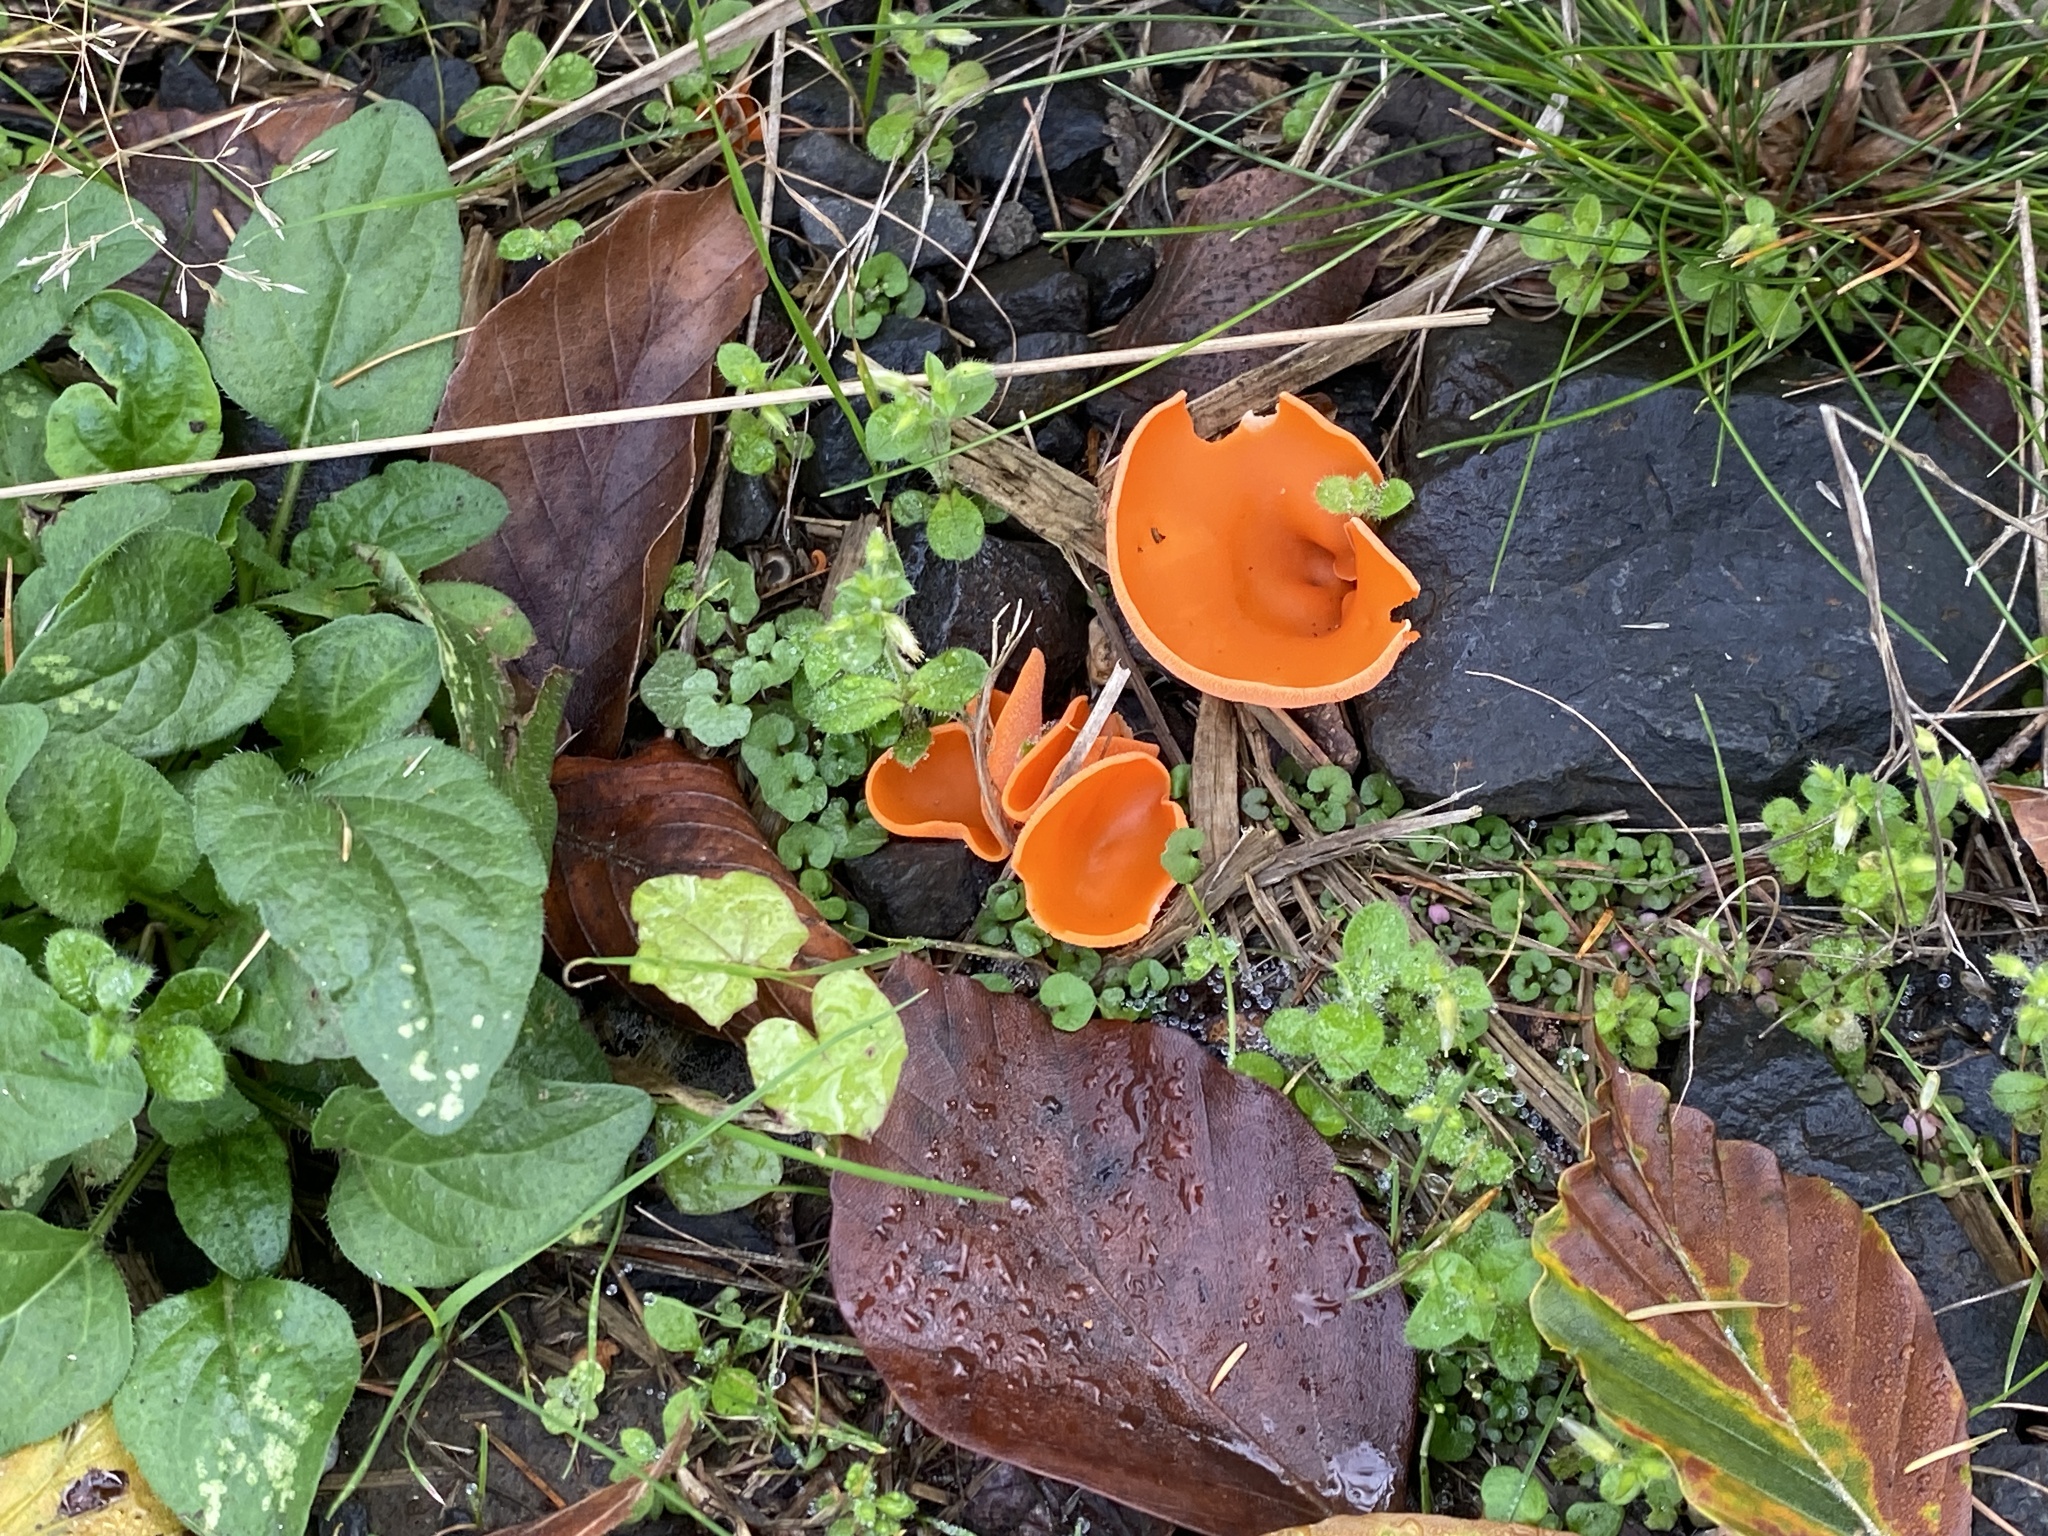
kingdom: Fungi
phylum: Ascomycota
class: Pezizomycetes
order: Pezizales
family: Pyronemataceae
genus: Aleuria
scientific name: Aleuria aurantia
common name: Orange peel fungus
